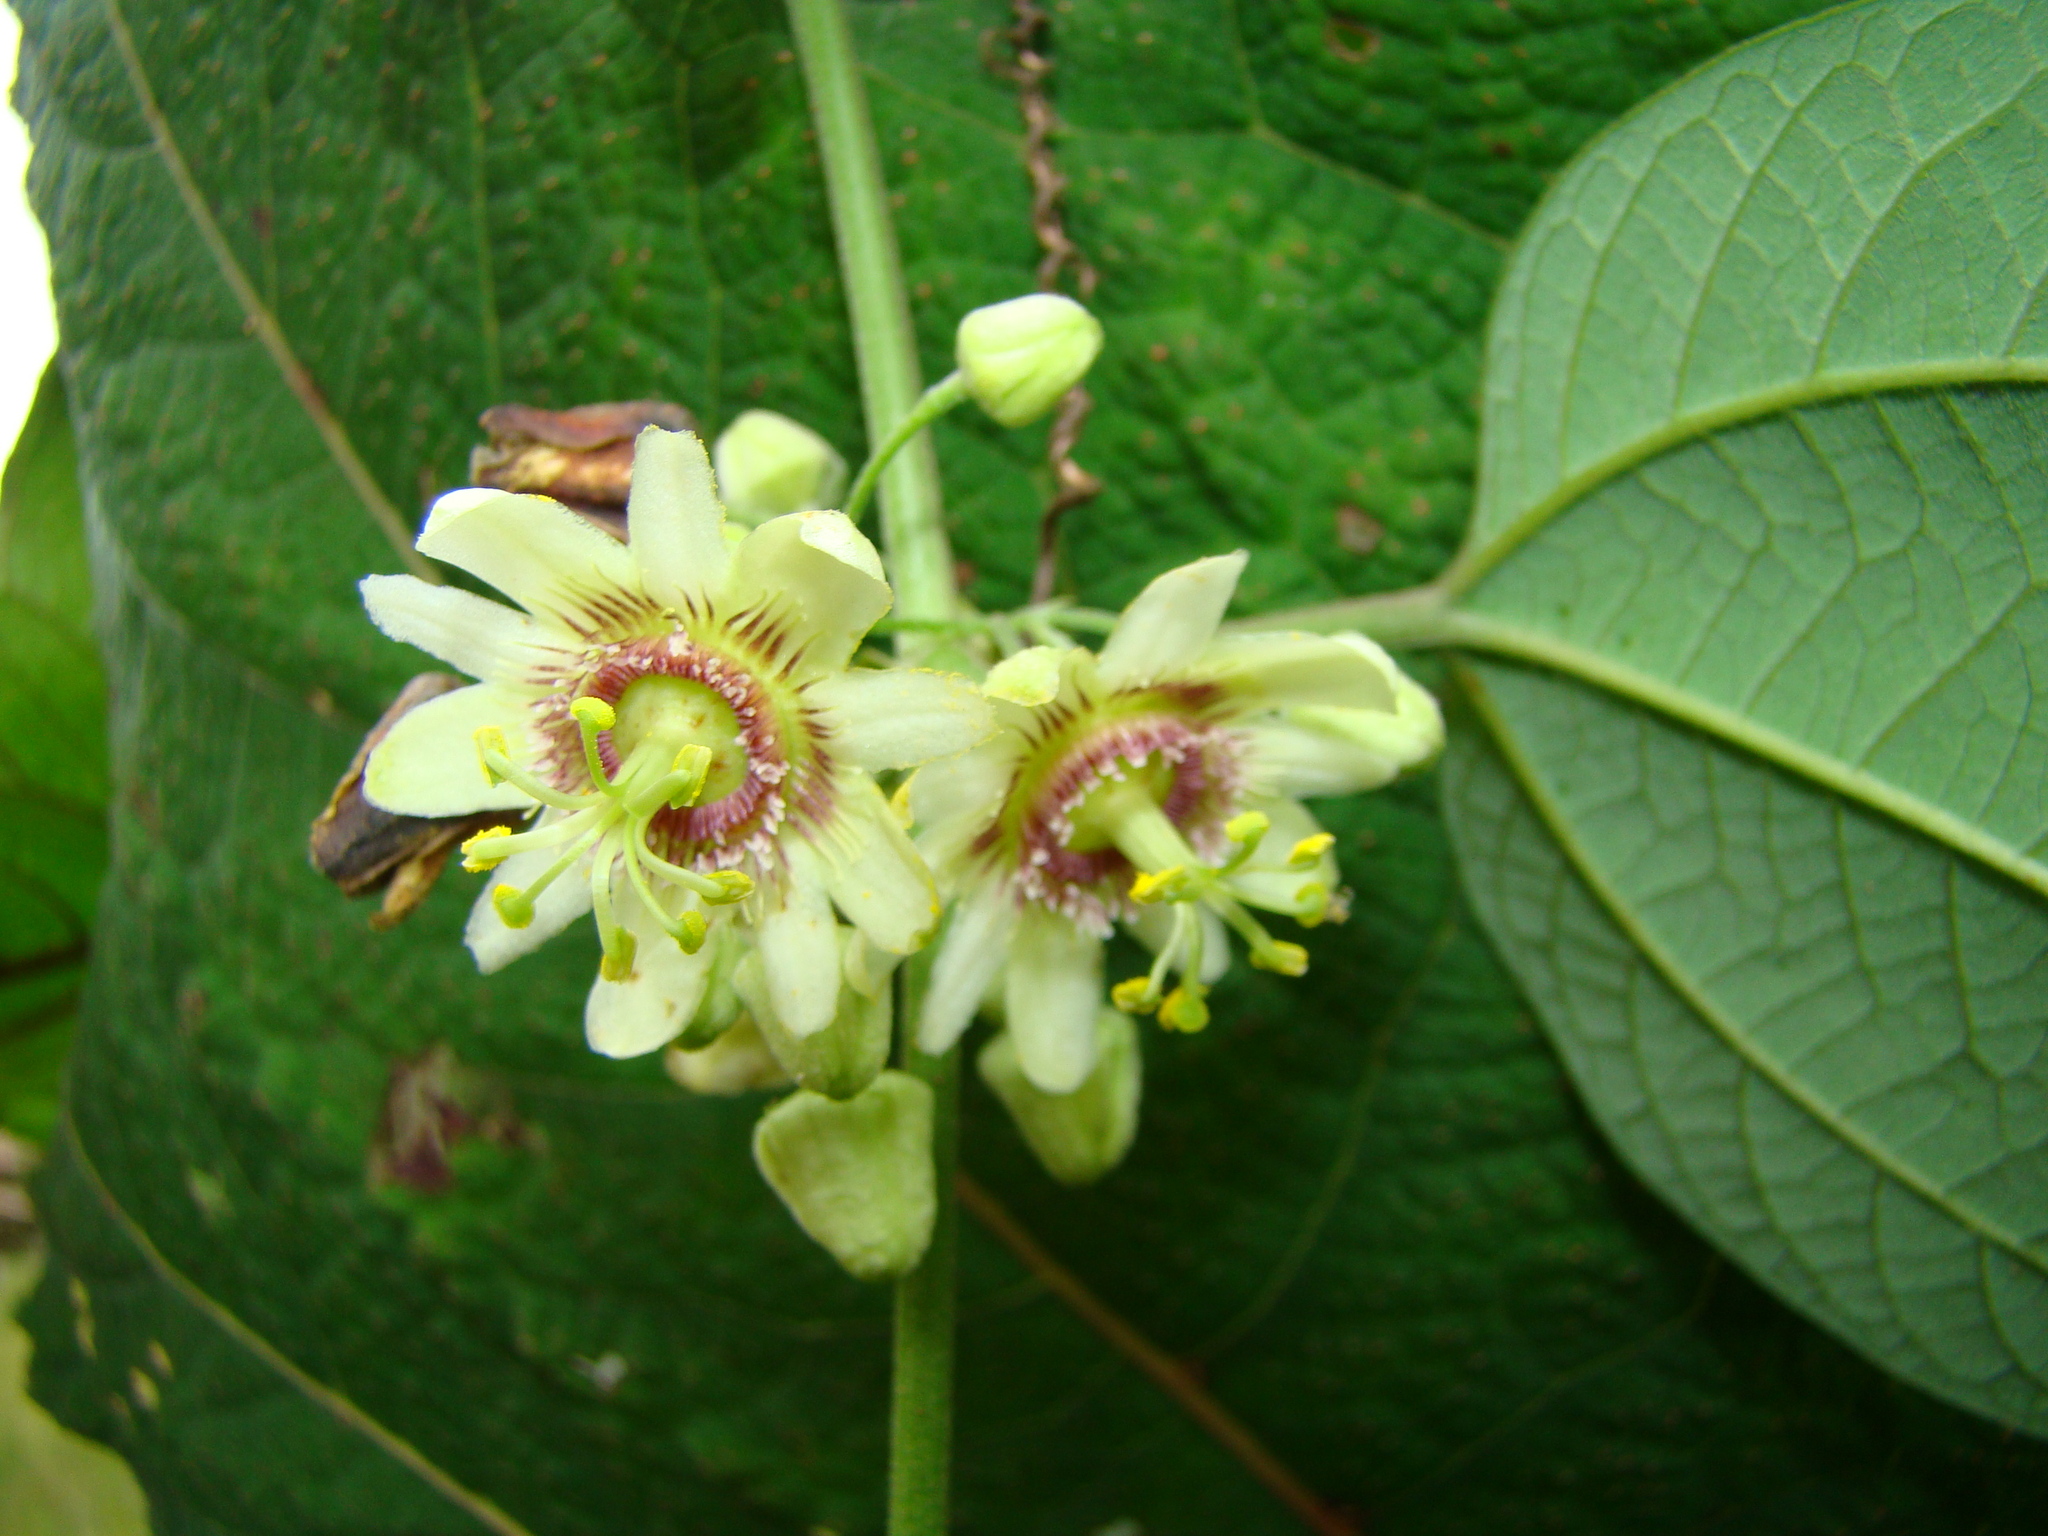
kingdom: Plantae
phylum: Tracheophyta
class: Magnoliopsida
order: Malpighiales
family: Passifloraceae
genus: Passiflora
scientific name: Passiflora apoda
